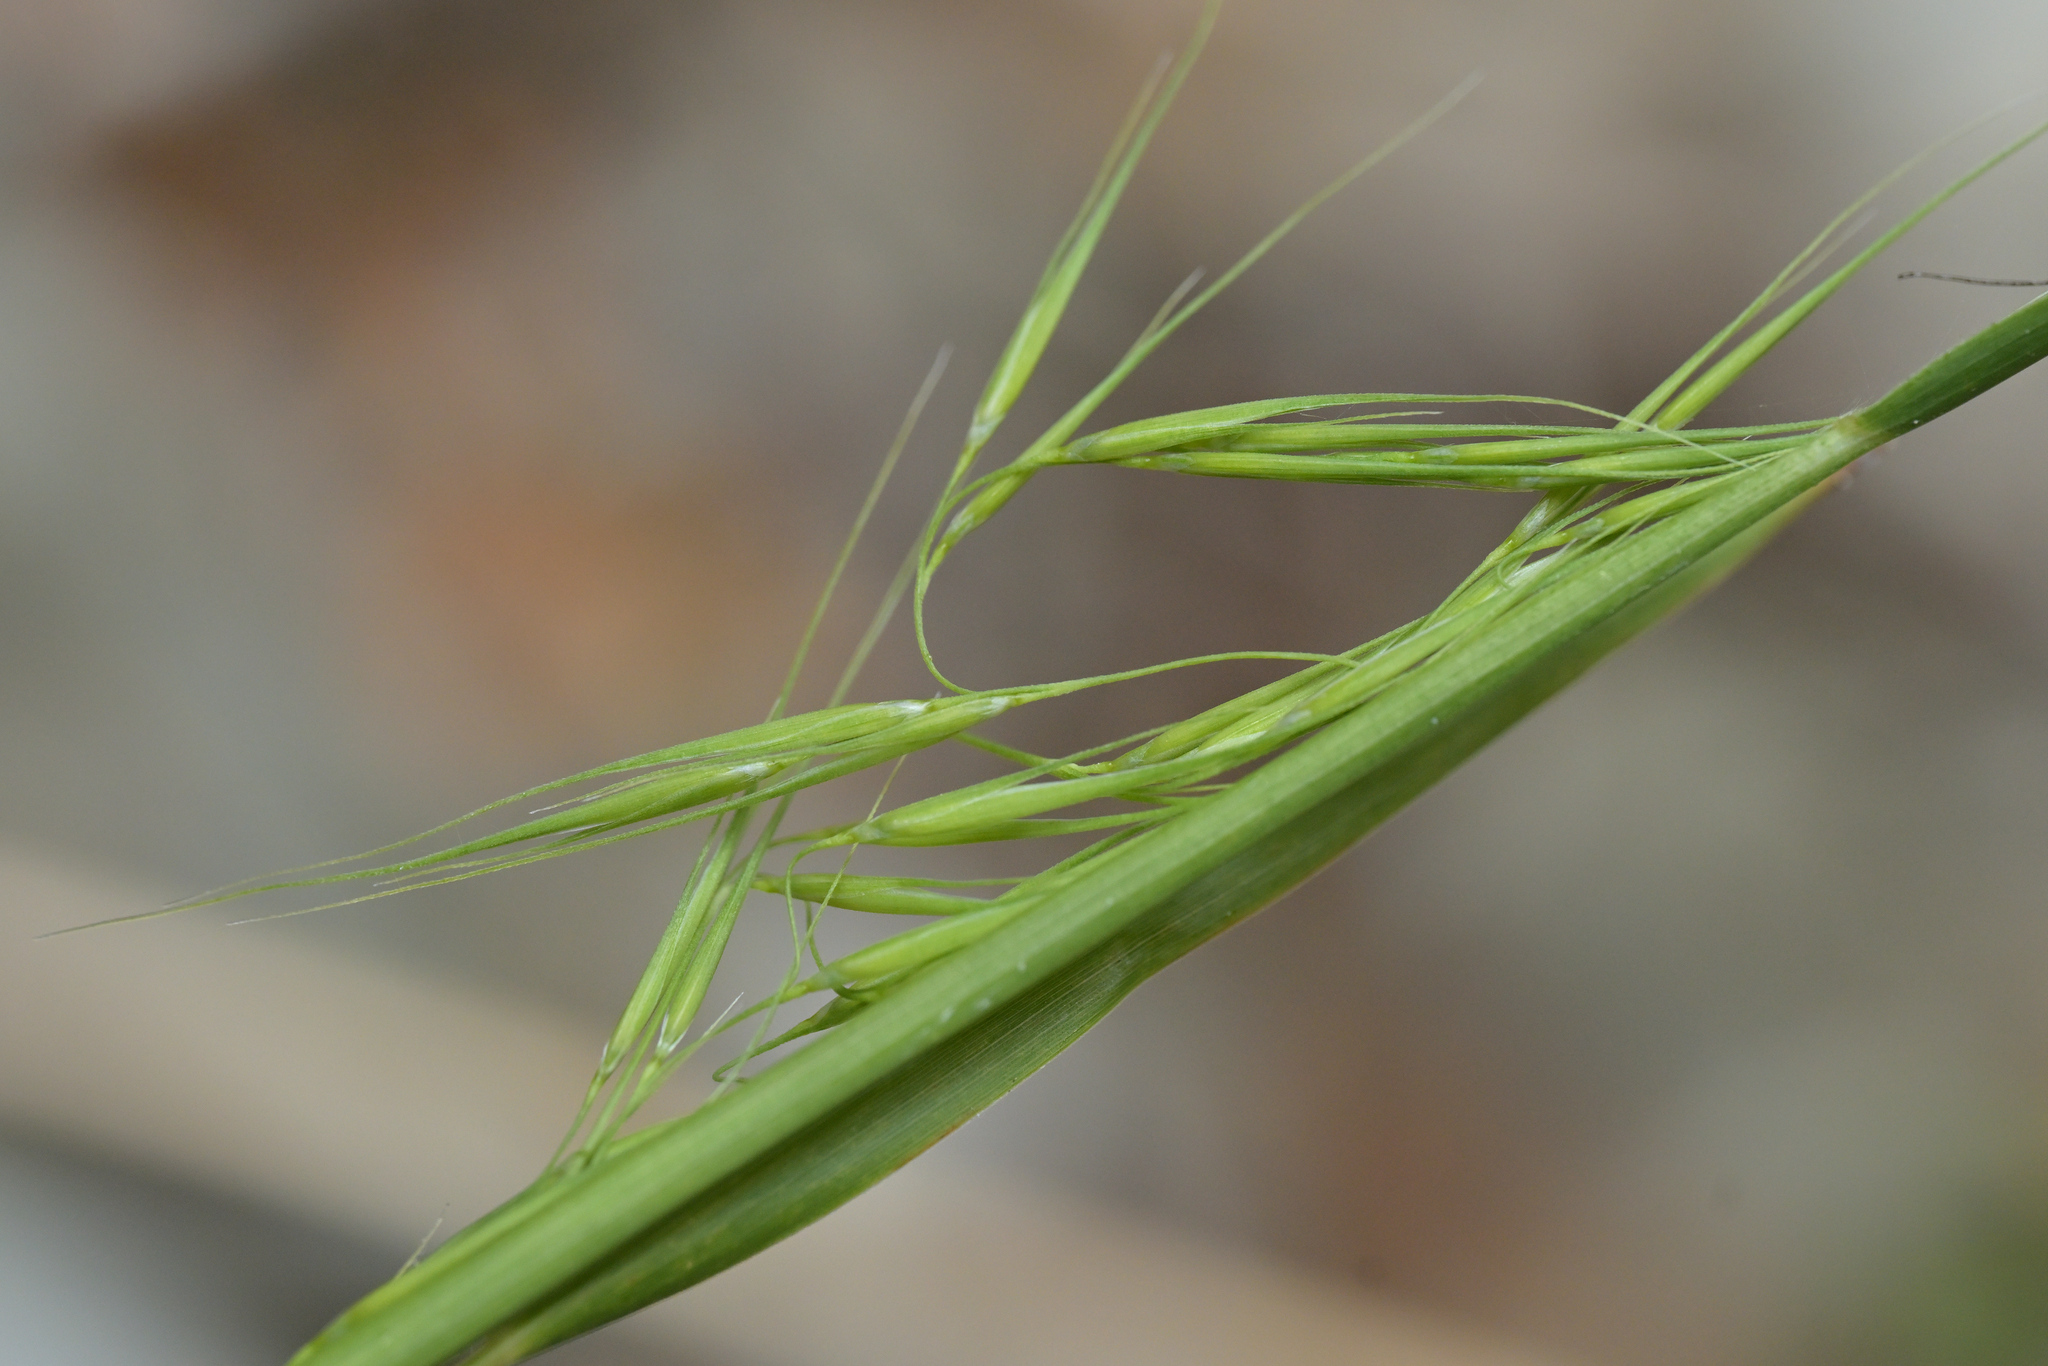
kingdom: Plantae
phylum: Tracheophyta
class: Liliopsida
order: Poales
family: Poaceae
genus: Ehrharta
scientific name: Ehrharta diplax
